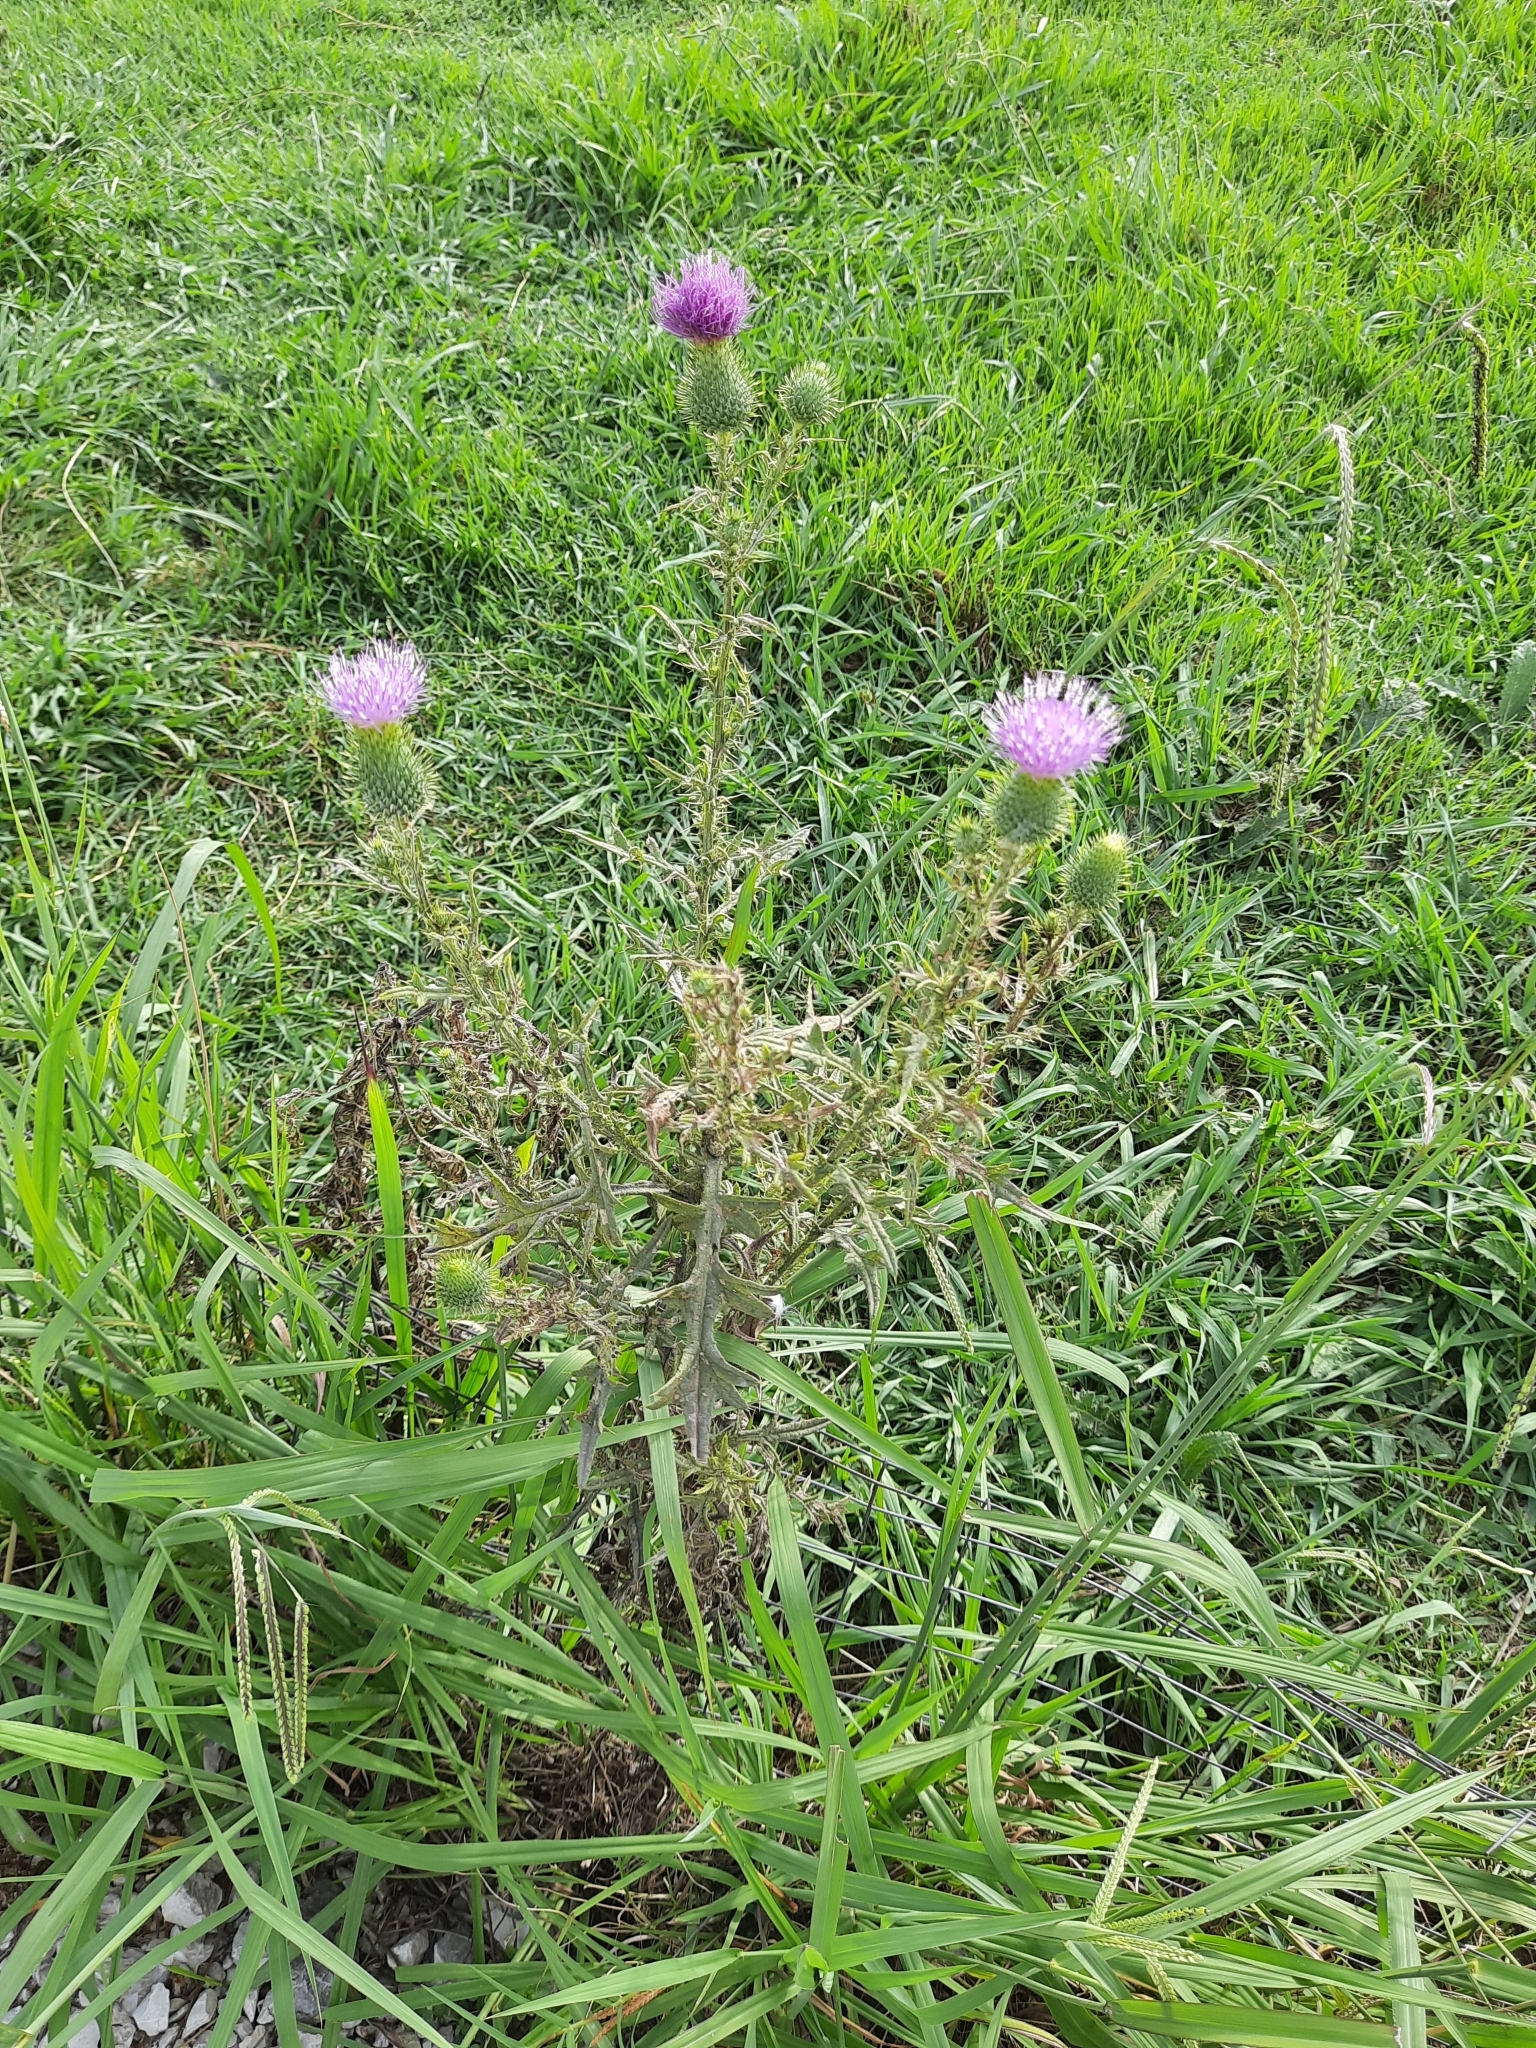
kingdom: Plantae
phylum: Tracheophyta
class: Magnoliopsida
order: Asterales
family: Asteraceae
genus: Cirsium
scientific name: Cirsium vulgare
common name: Bull thistle
